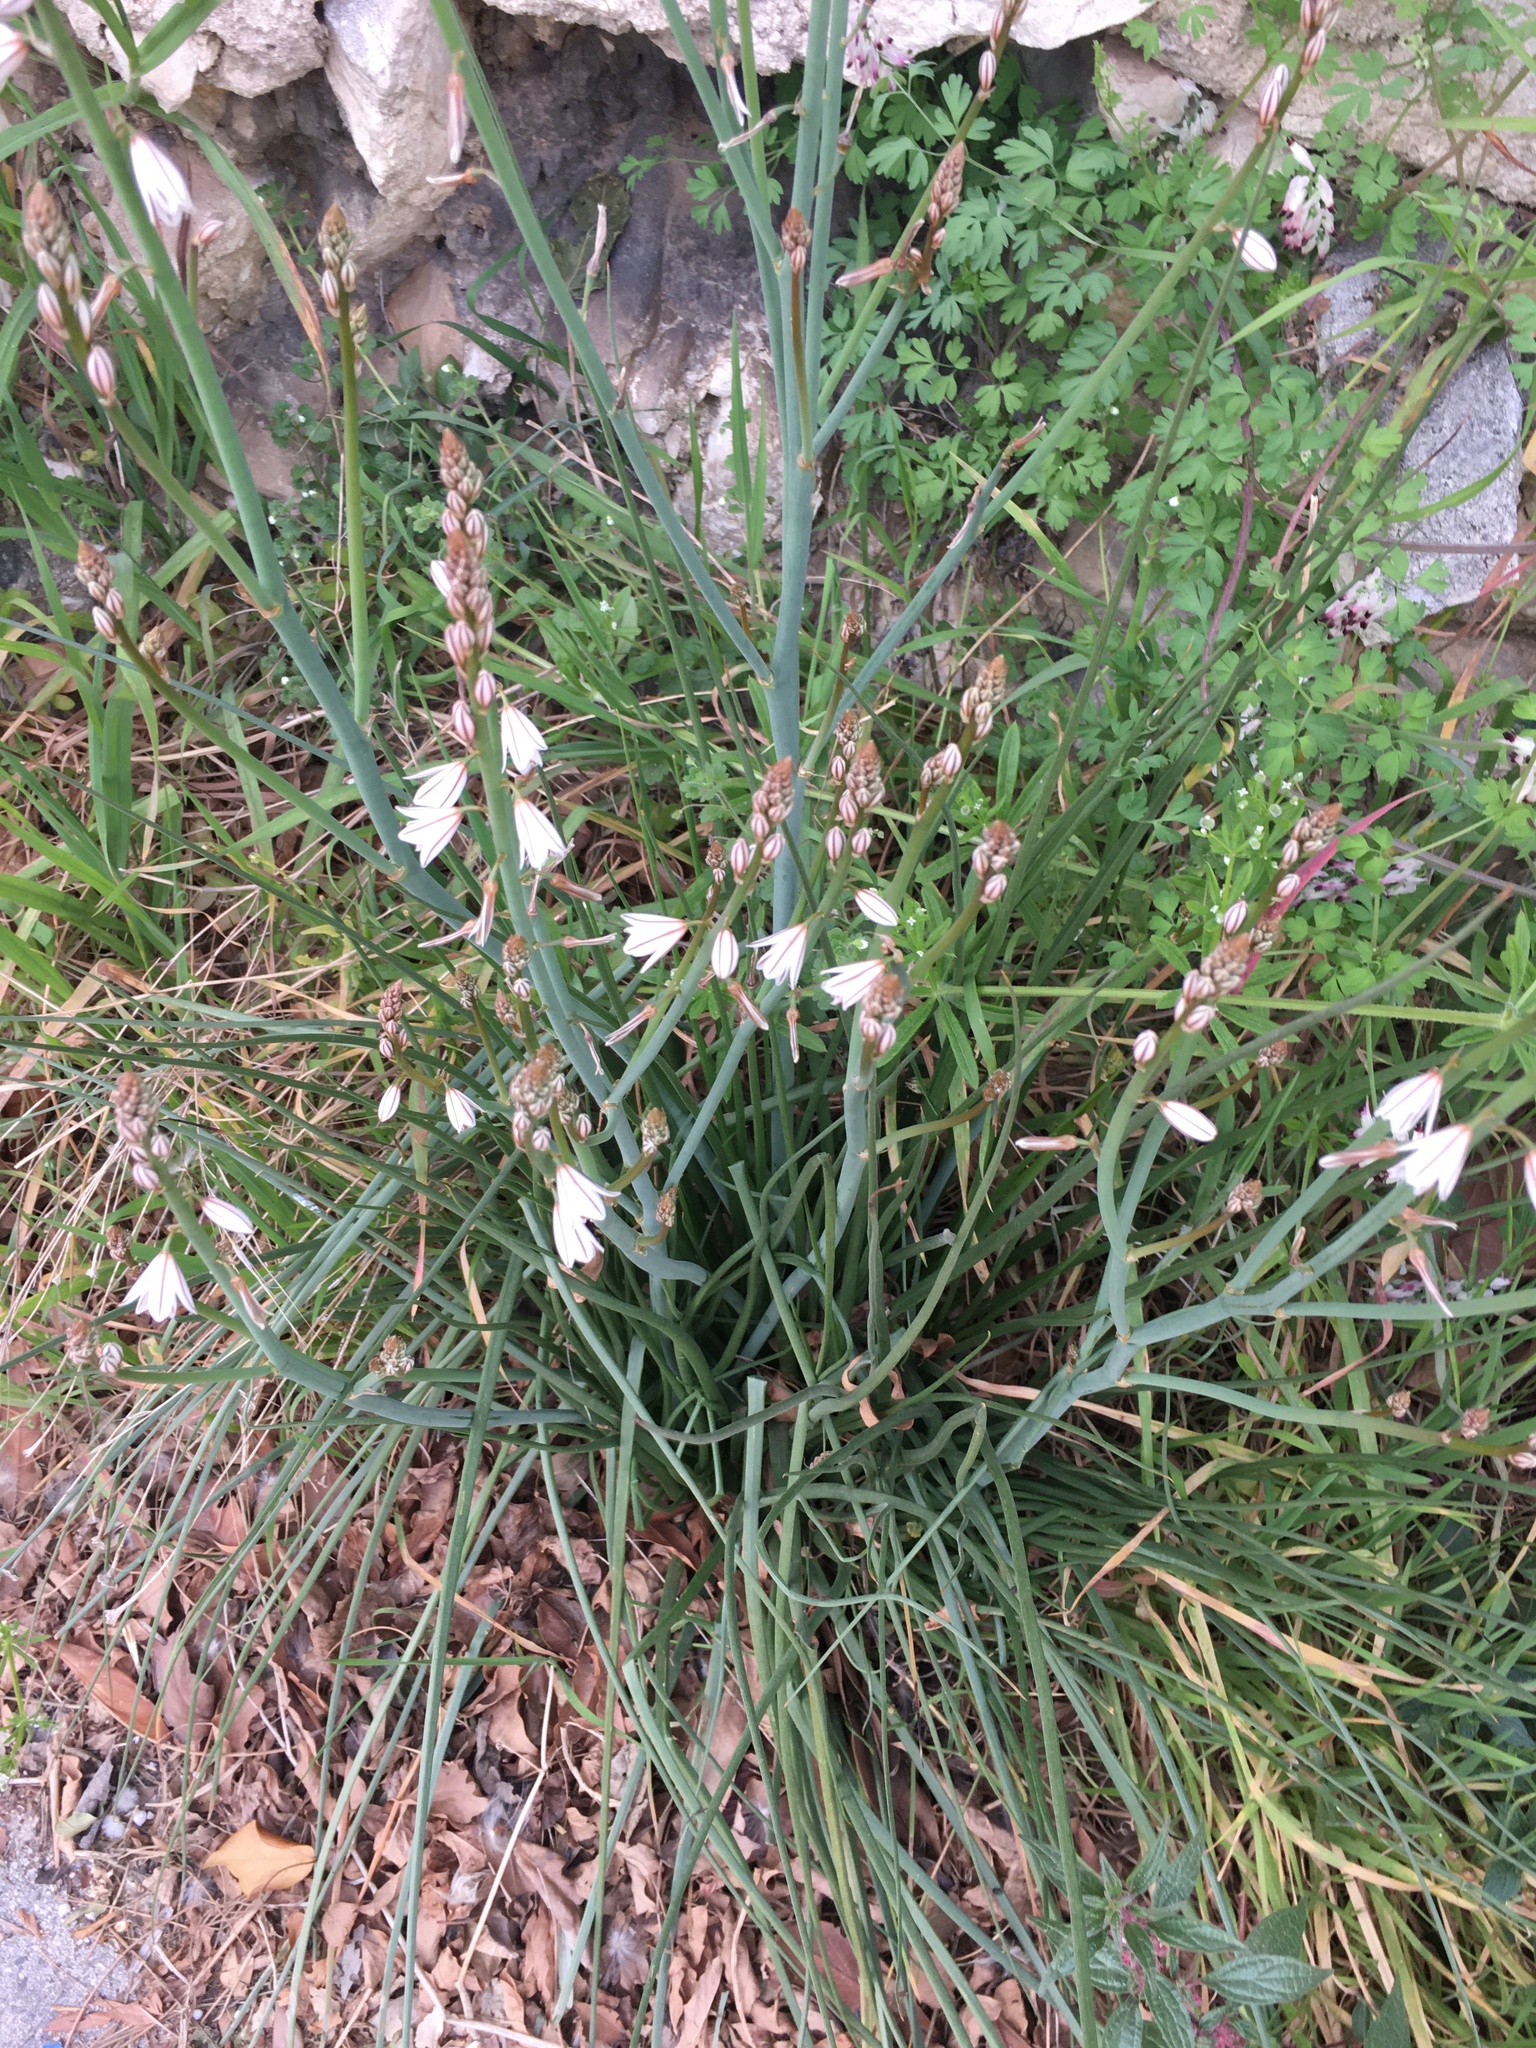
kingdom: Plantae
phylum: Tracheophyta
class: Liliopsida
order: Asparagales
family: Asphodelaceae
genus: Asphodelus
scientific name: Asphodelus fistulosus
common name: Onionweed
